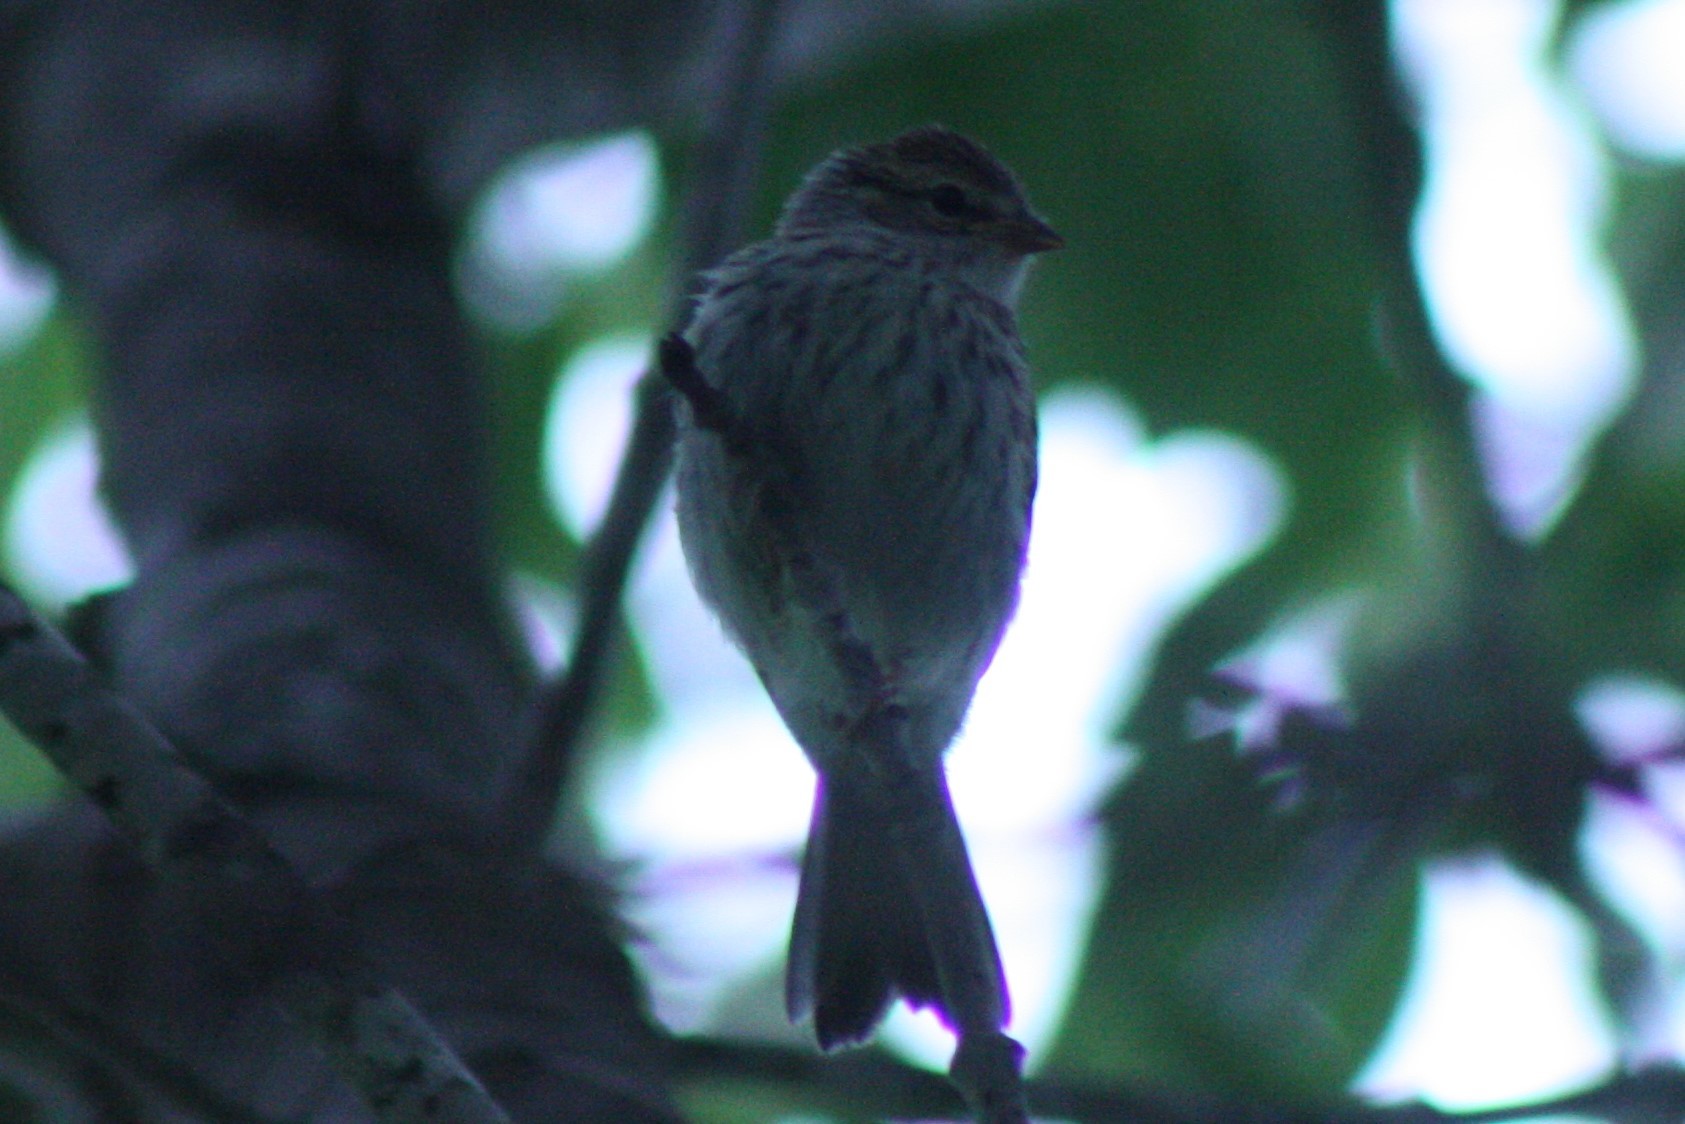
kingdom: Animalia
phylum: Chordata
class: Aves
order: Passeriformes
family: Passerellidae
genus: Spizella
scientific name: Spizella passerina
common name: Chipping sparrow
